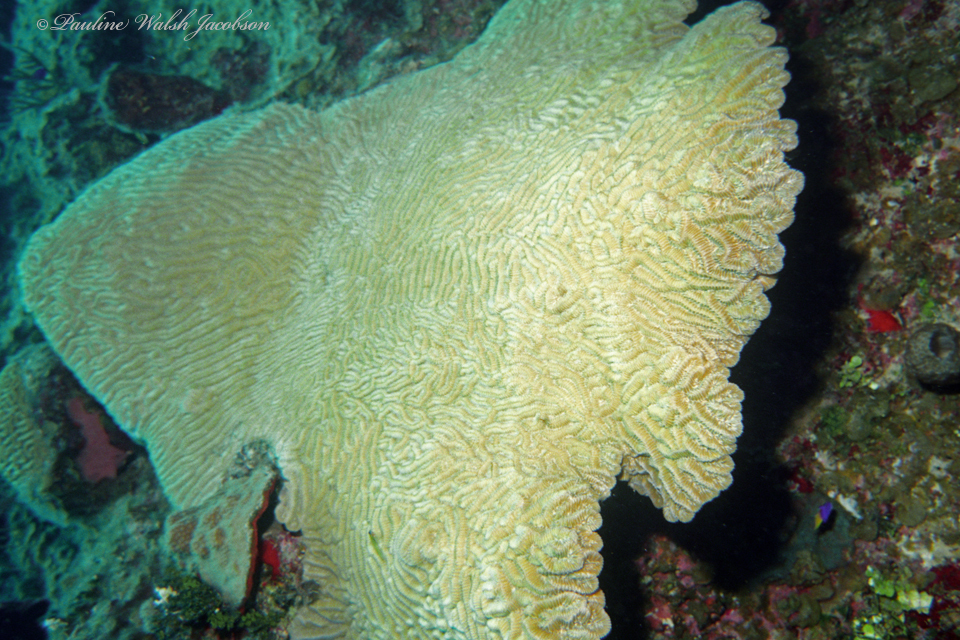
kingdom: Animalia
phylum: Cnidaria
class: Anthozoa
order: Scleractinia
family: Meandrinidae
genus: Meandrina
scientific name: Meandrina meandrites
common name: Maze coral
